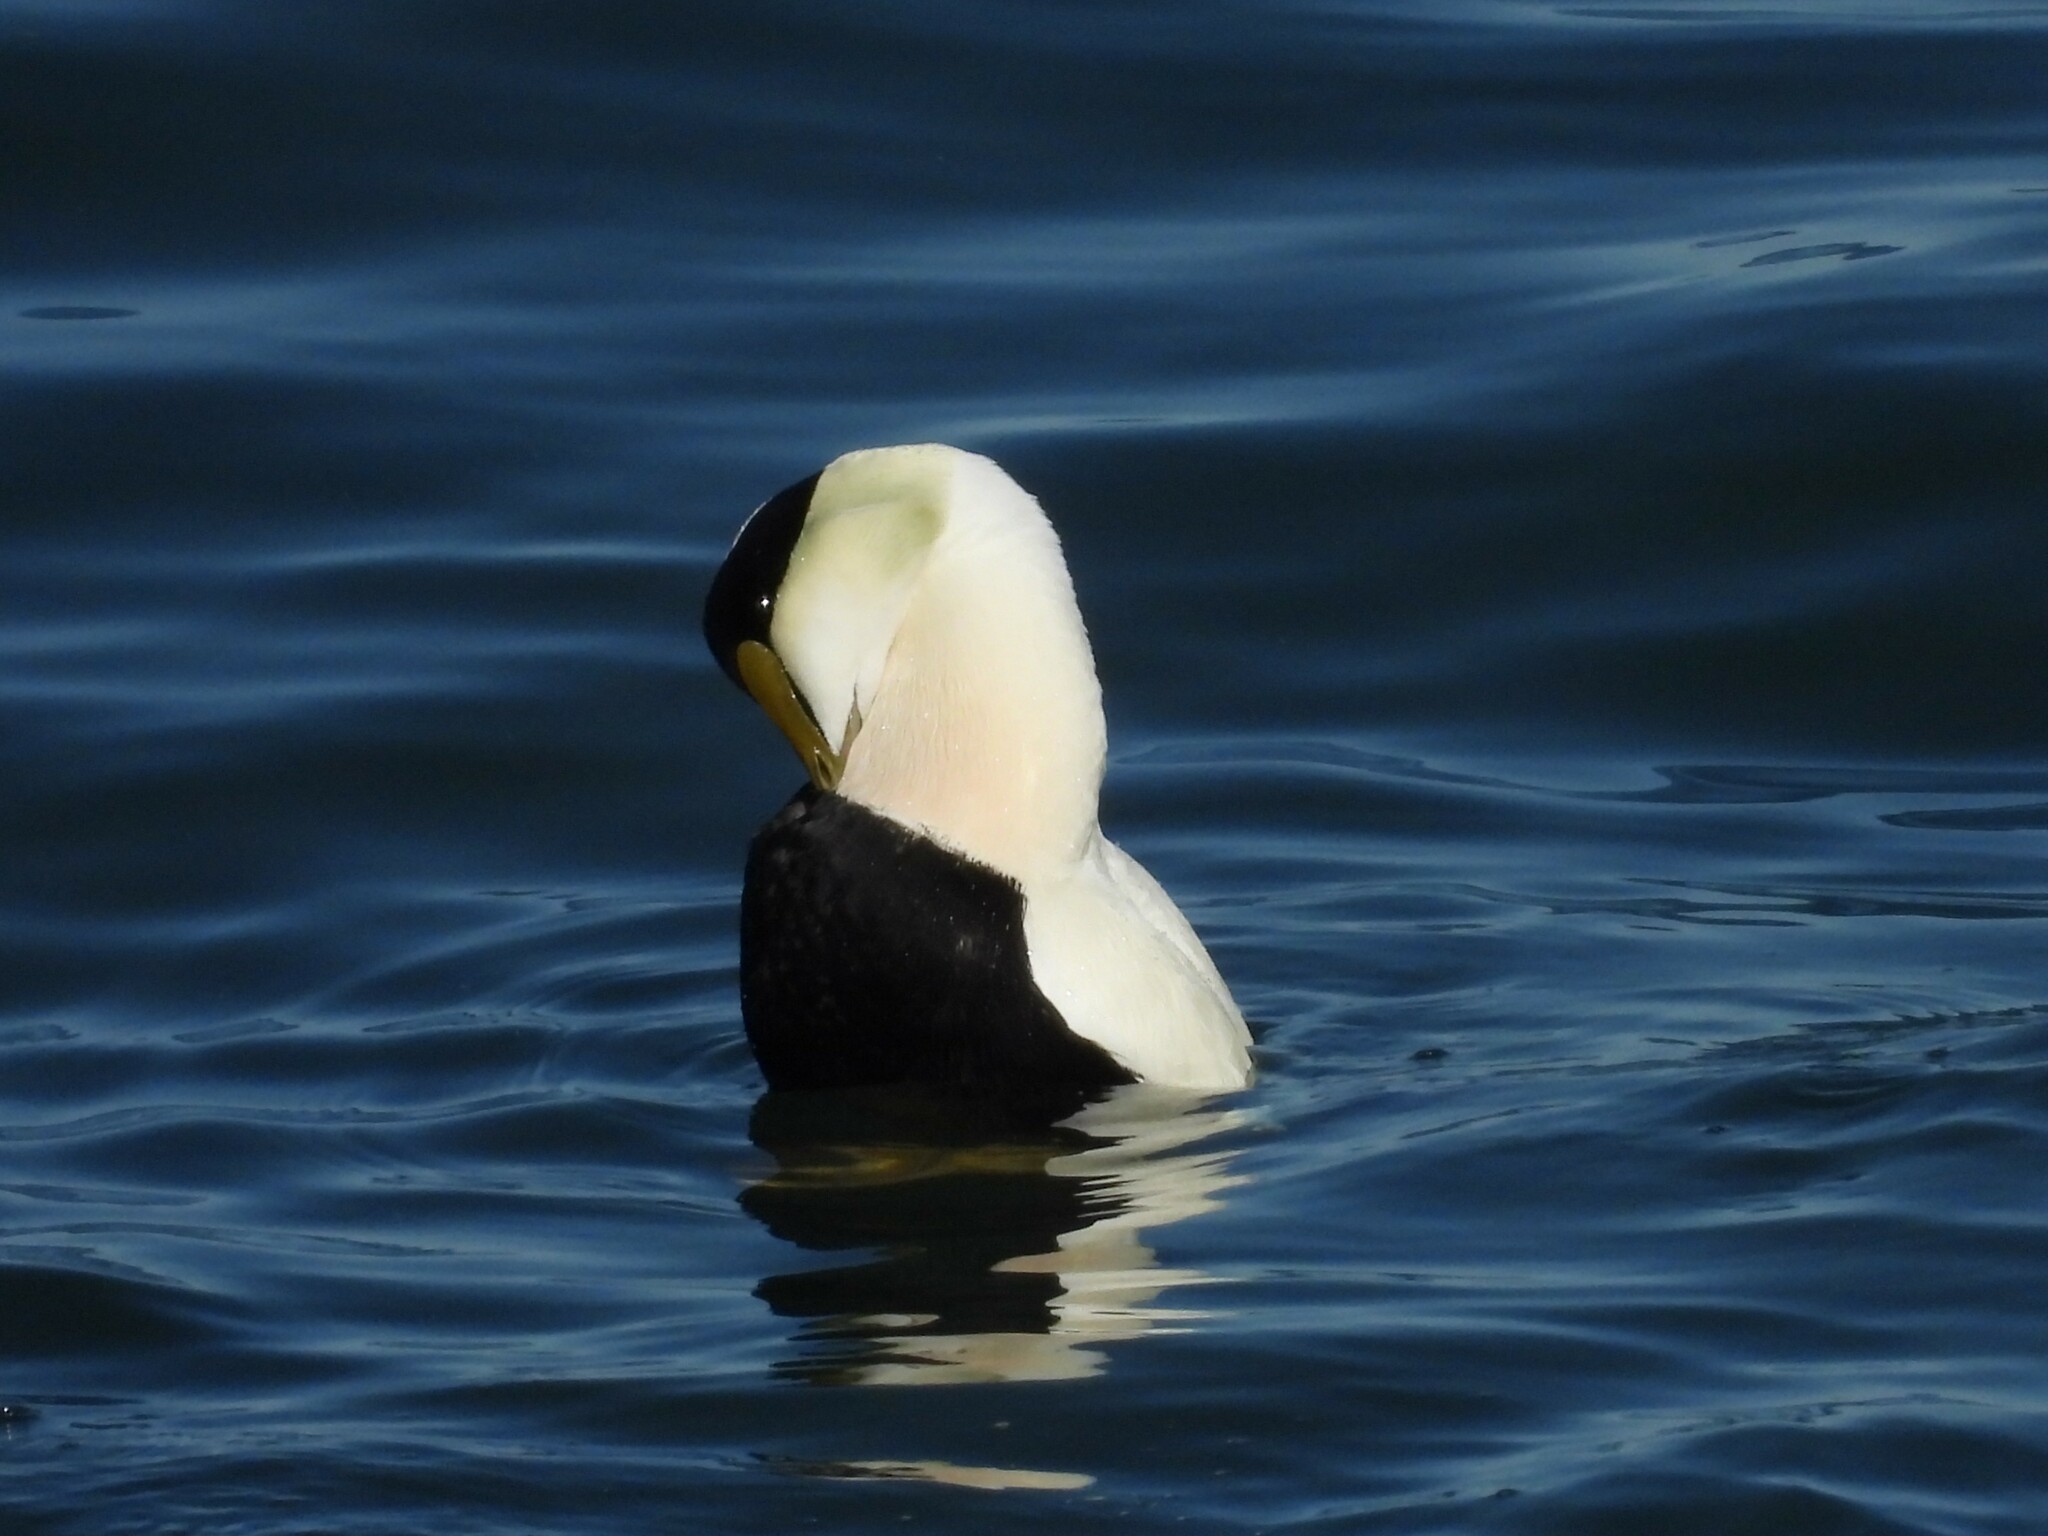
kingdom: Animalia
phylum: Chordata
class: Aves
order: Anseriformes
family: Anatidae
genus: Somateria
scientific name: Somateria mollissima
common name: Common eider
